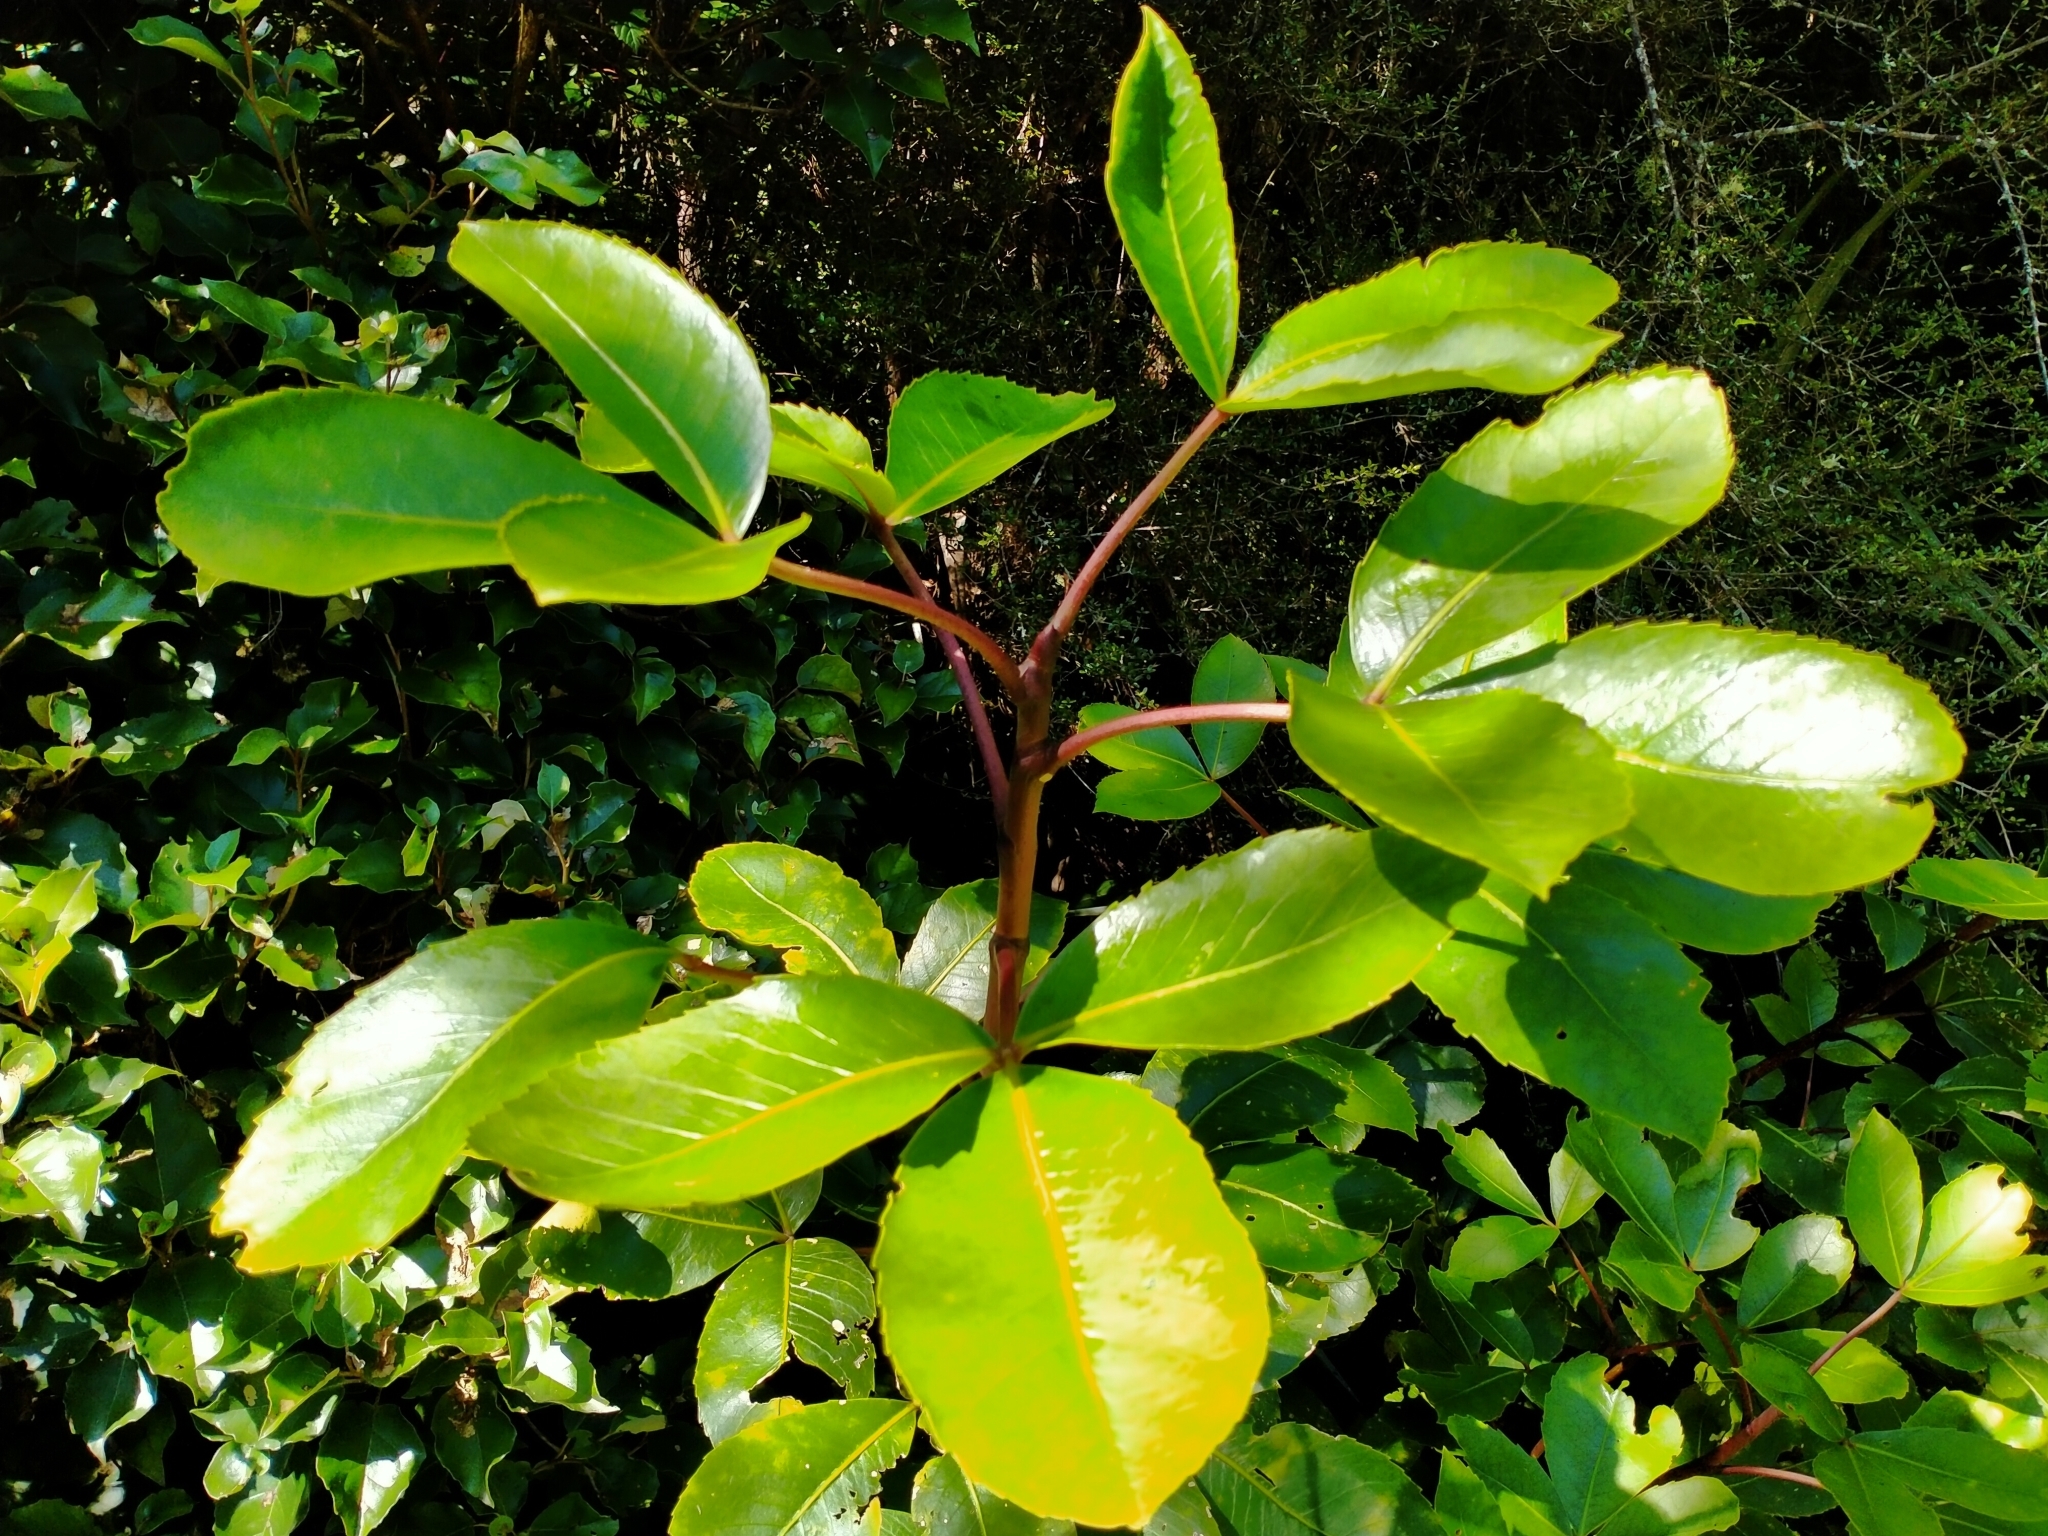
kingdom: Plantae
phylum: Tracheophyta
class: Magnoliopsida
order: Apiales
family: Araliaceae
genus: Neopanax
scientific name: Neopanax colensoi
